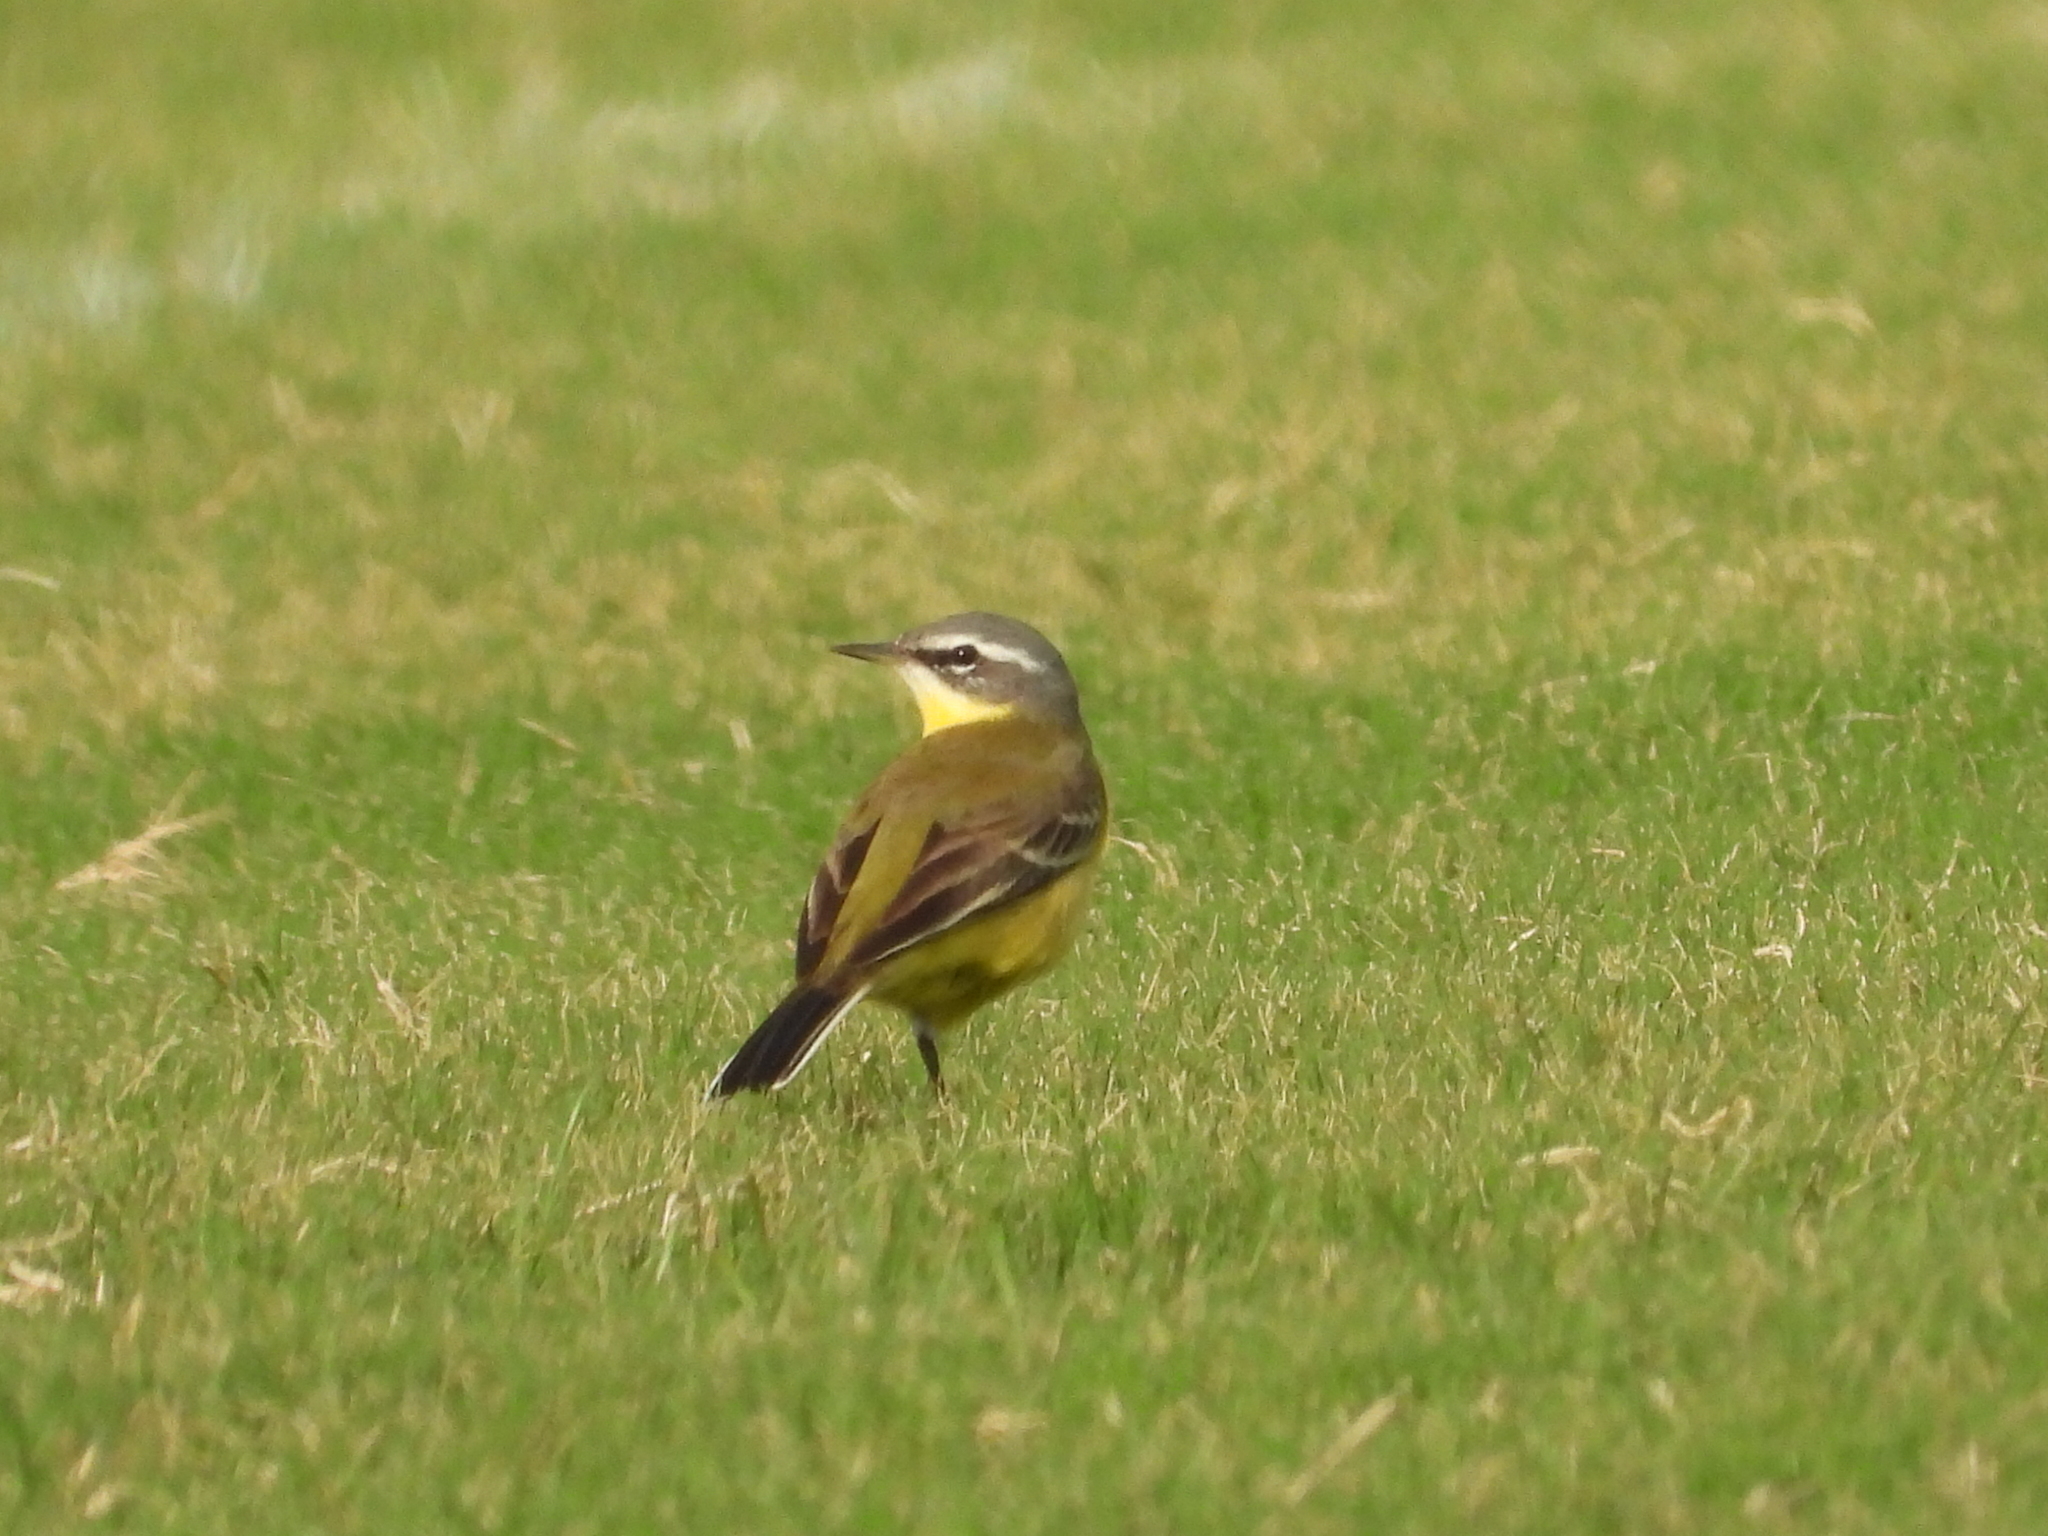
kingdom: Animalia
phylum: Chordata
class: Aves
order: Passeriformes
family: Motacillidae
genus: Motacilla
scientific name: Motacilla tschutschensis
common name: Eastern yellow wagtail
